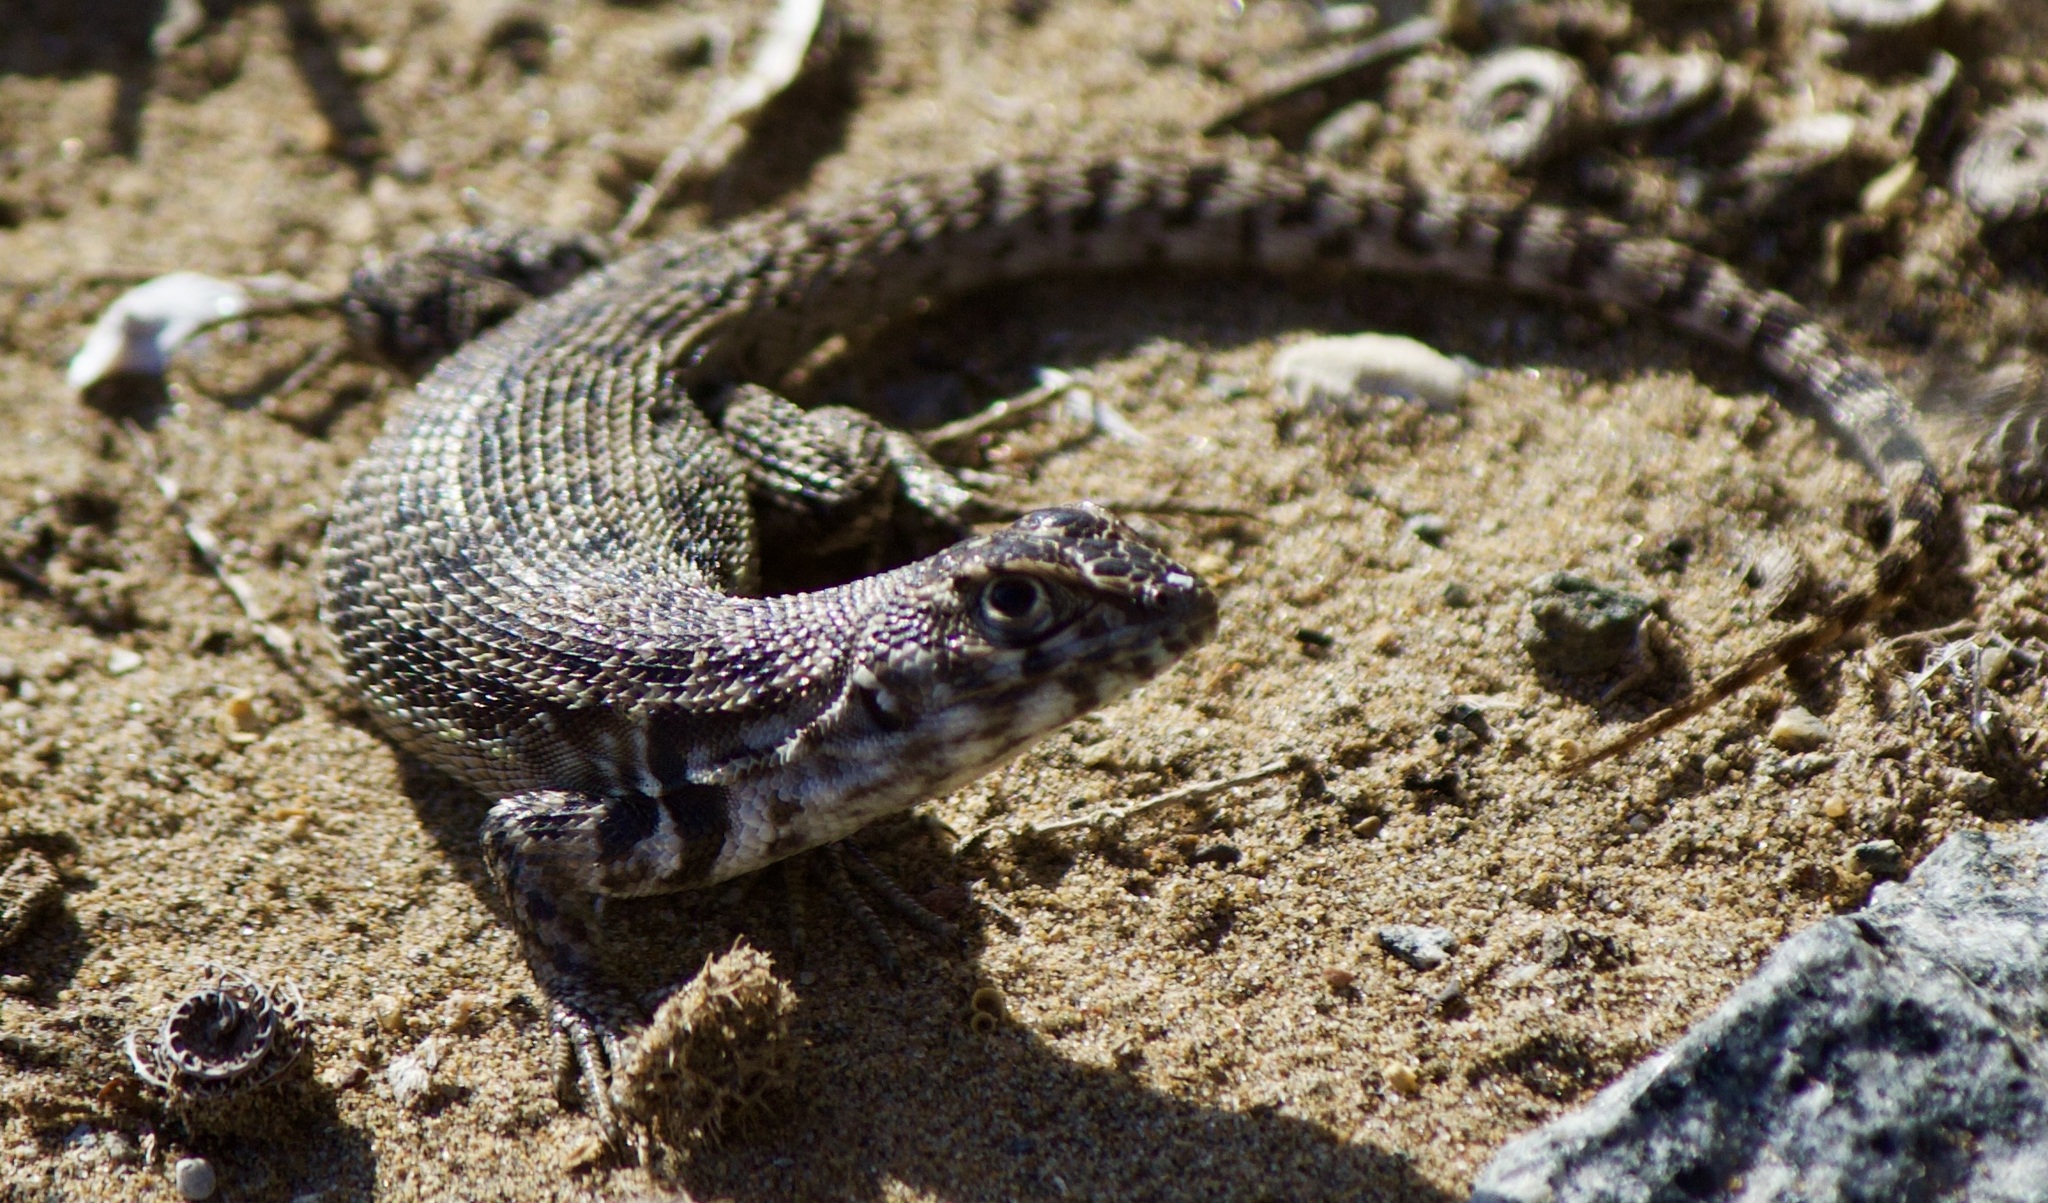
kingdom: Animalia
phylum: Chordata
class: Squamata
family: Liolaemidae
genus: Liolaemus
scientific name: Liolaemus zapallarensis
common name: Zapallaren tree iguana
